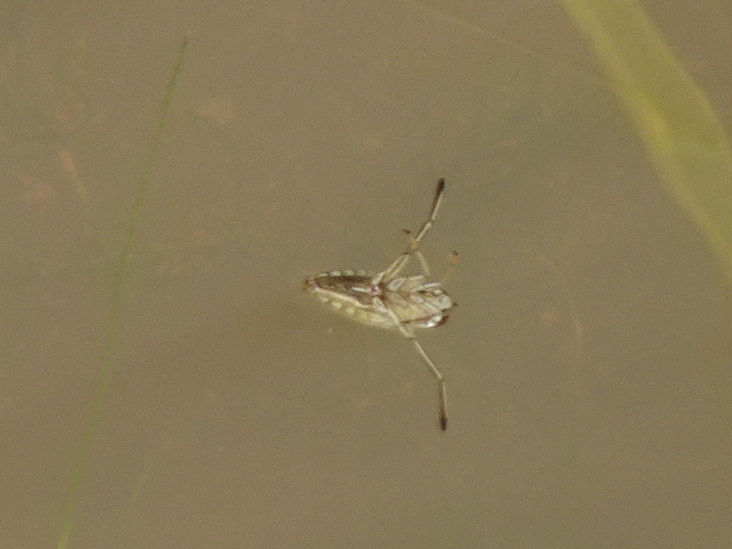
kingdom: Animalia
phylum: Arthropoda
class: Insecta
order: Hemiptera
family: Notonectidae
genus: Notonecta
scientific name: Notonecta
